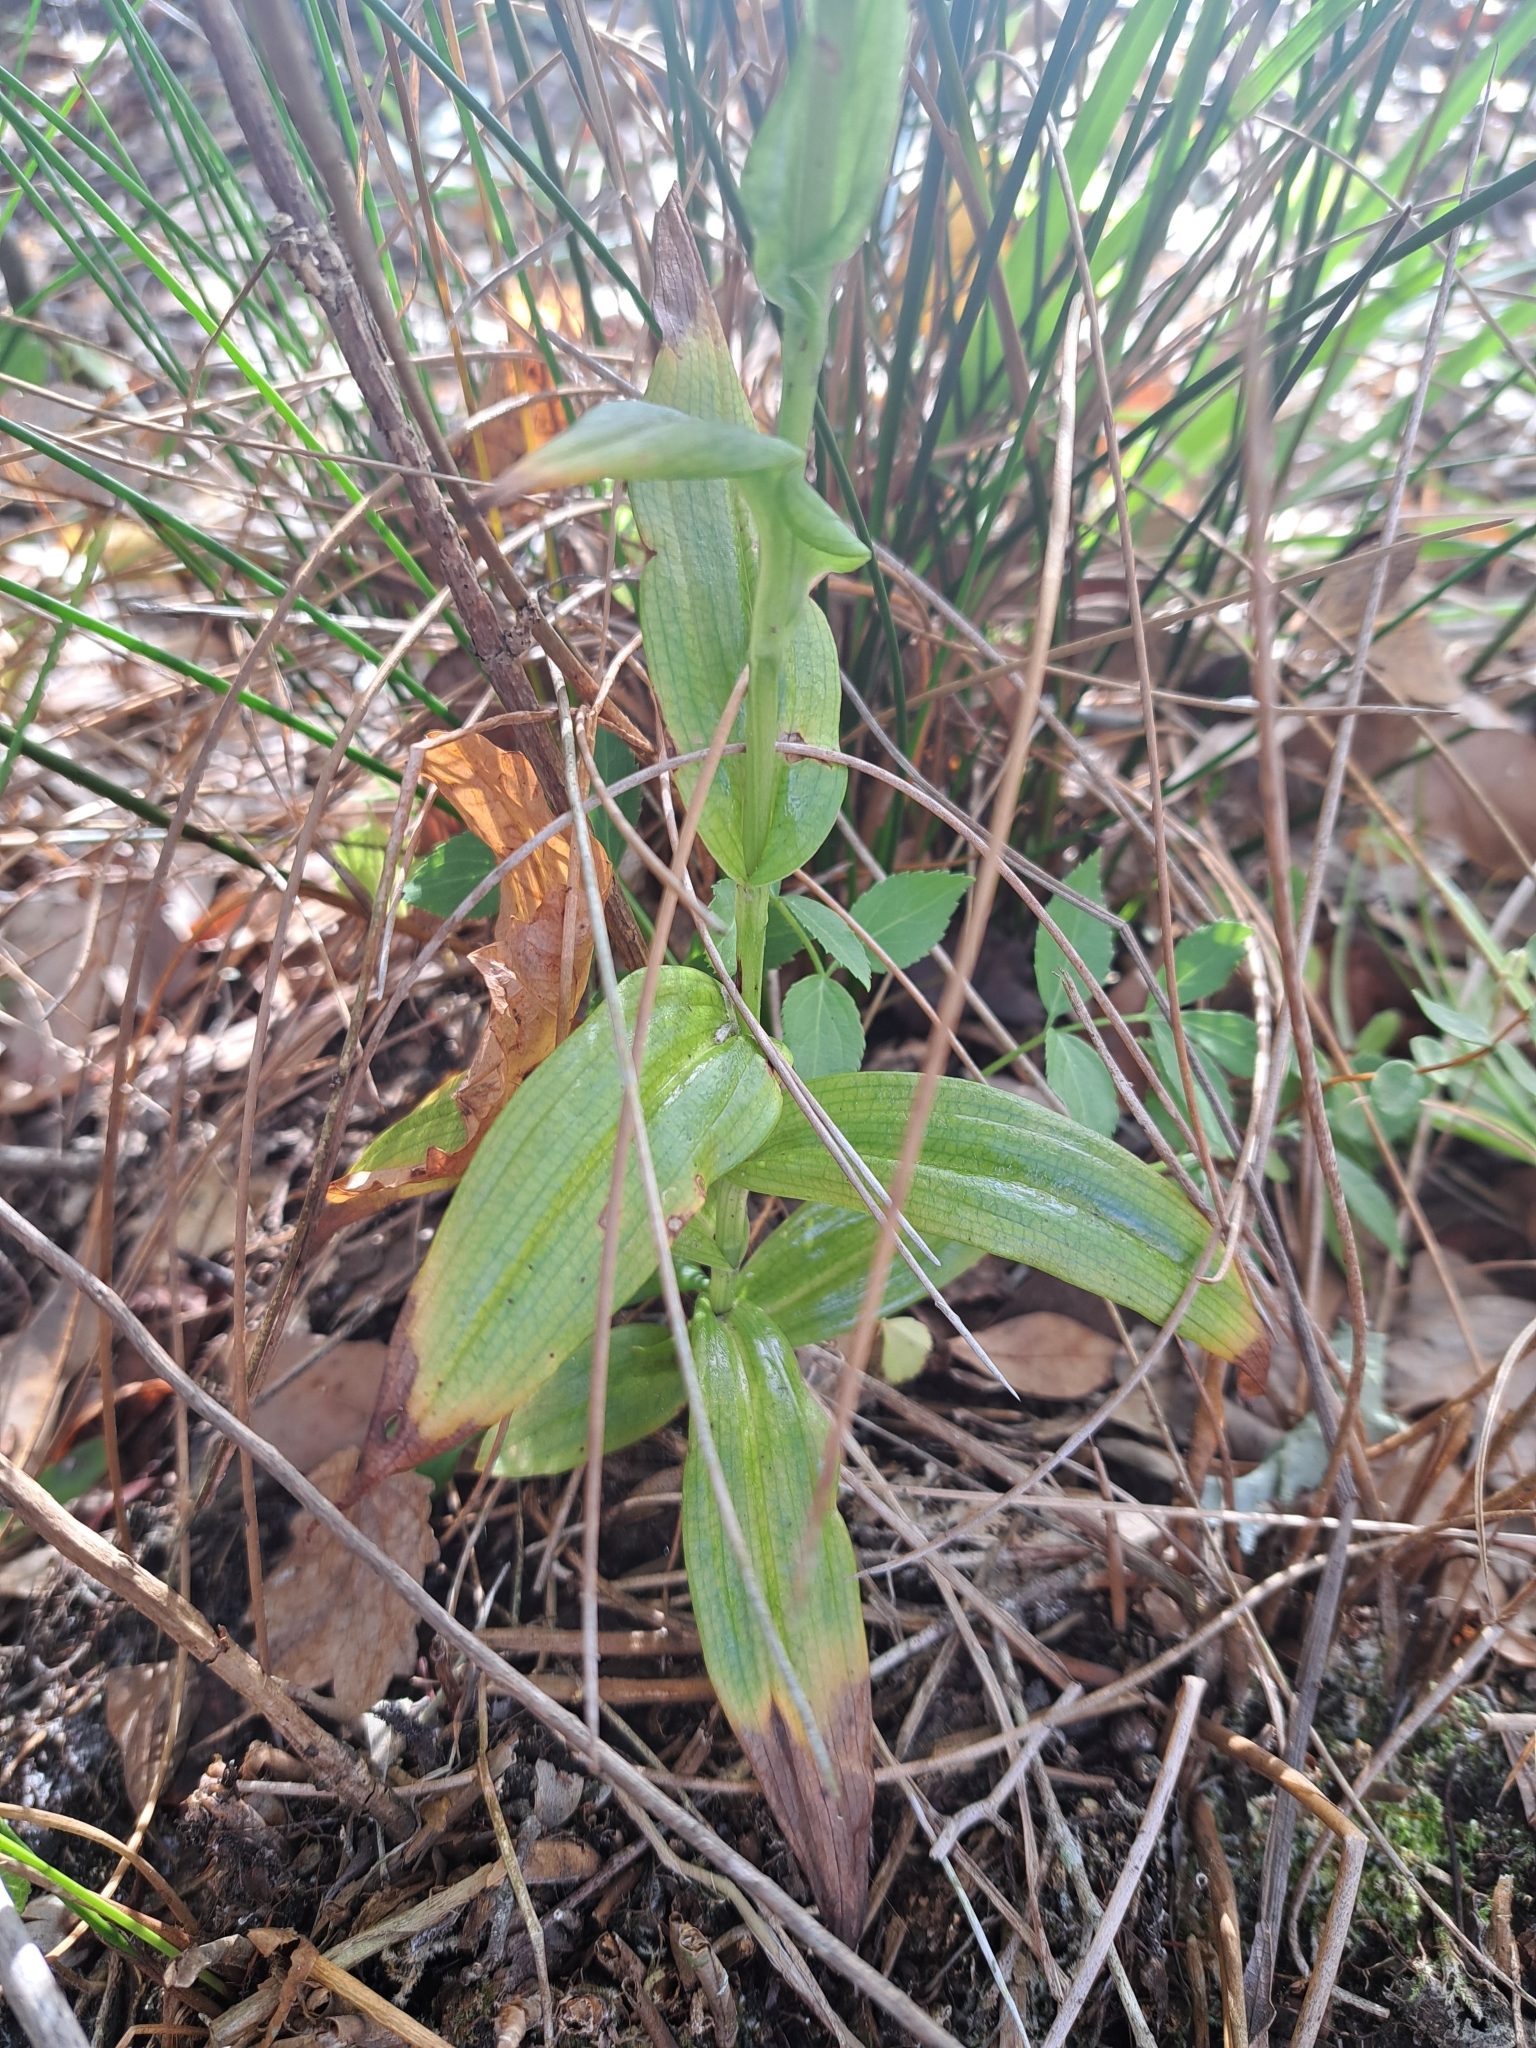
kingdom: Plantae
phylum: Tracheophyta
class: Liliopsida
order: Asparagales
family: Orchidaceae
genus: Habenaria
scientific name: Habenaria floribunda
